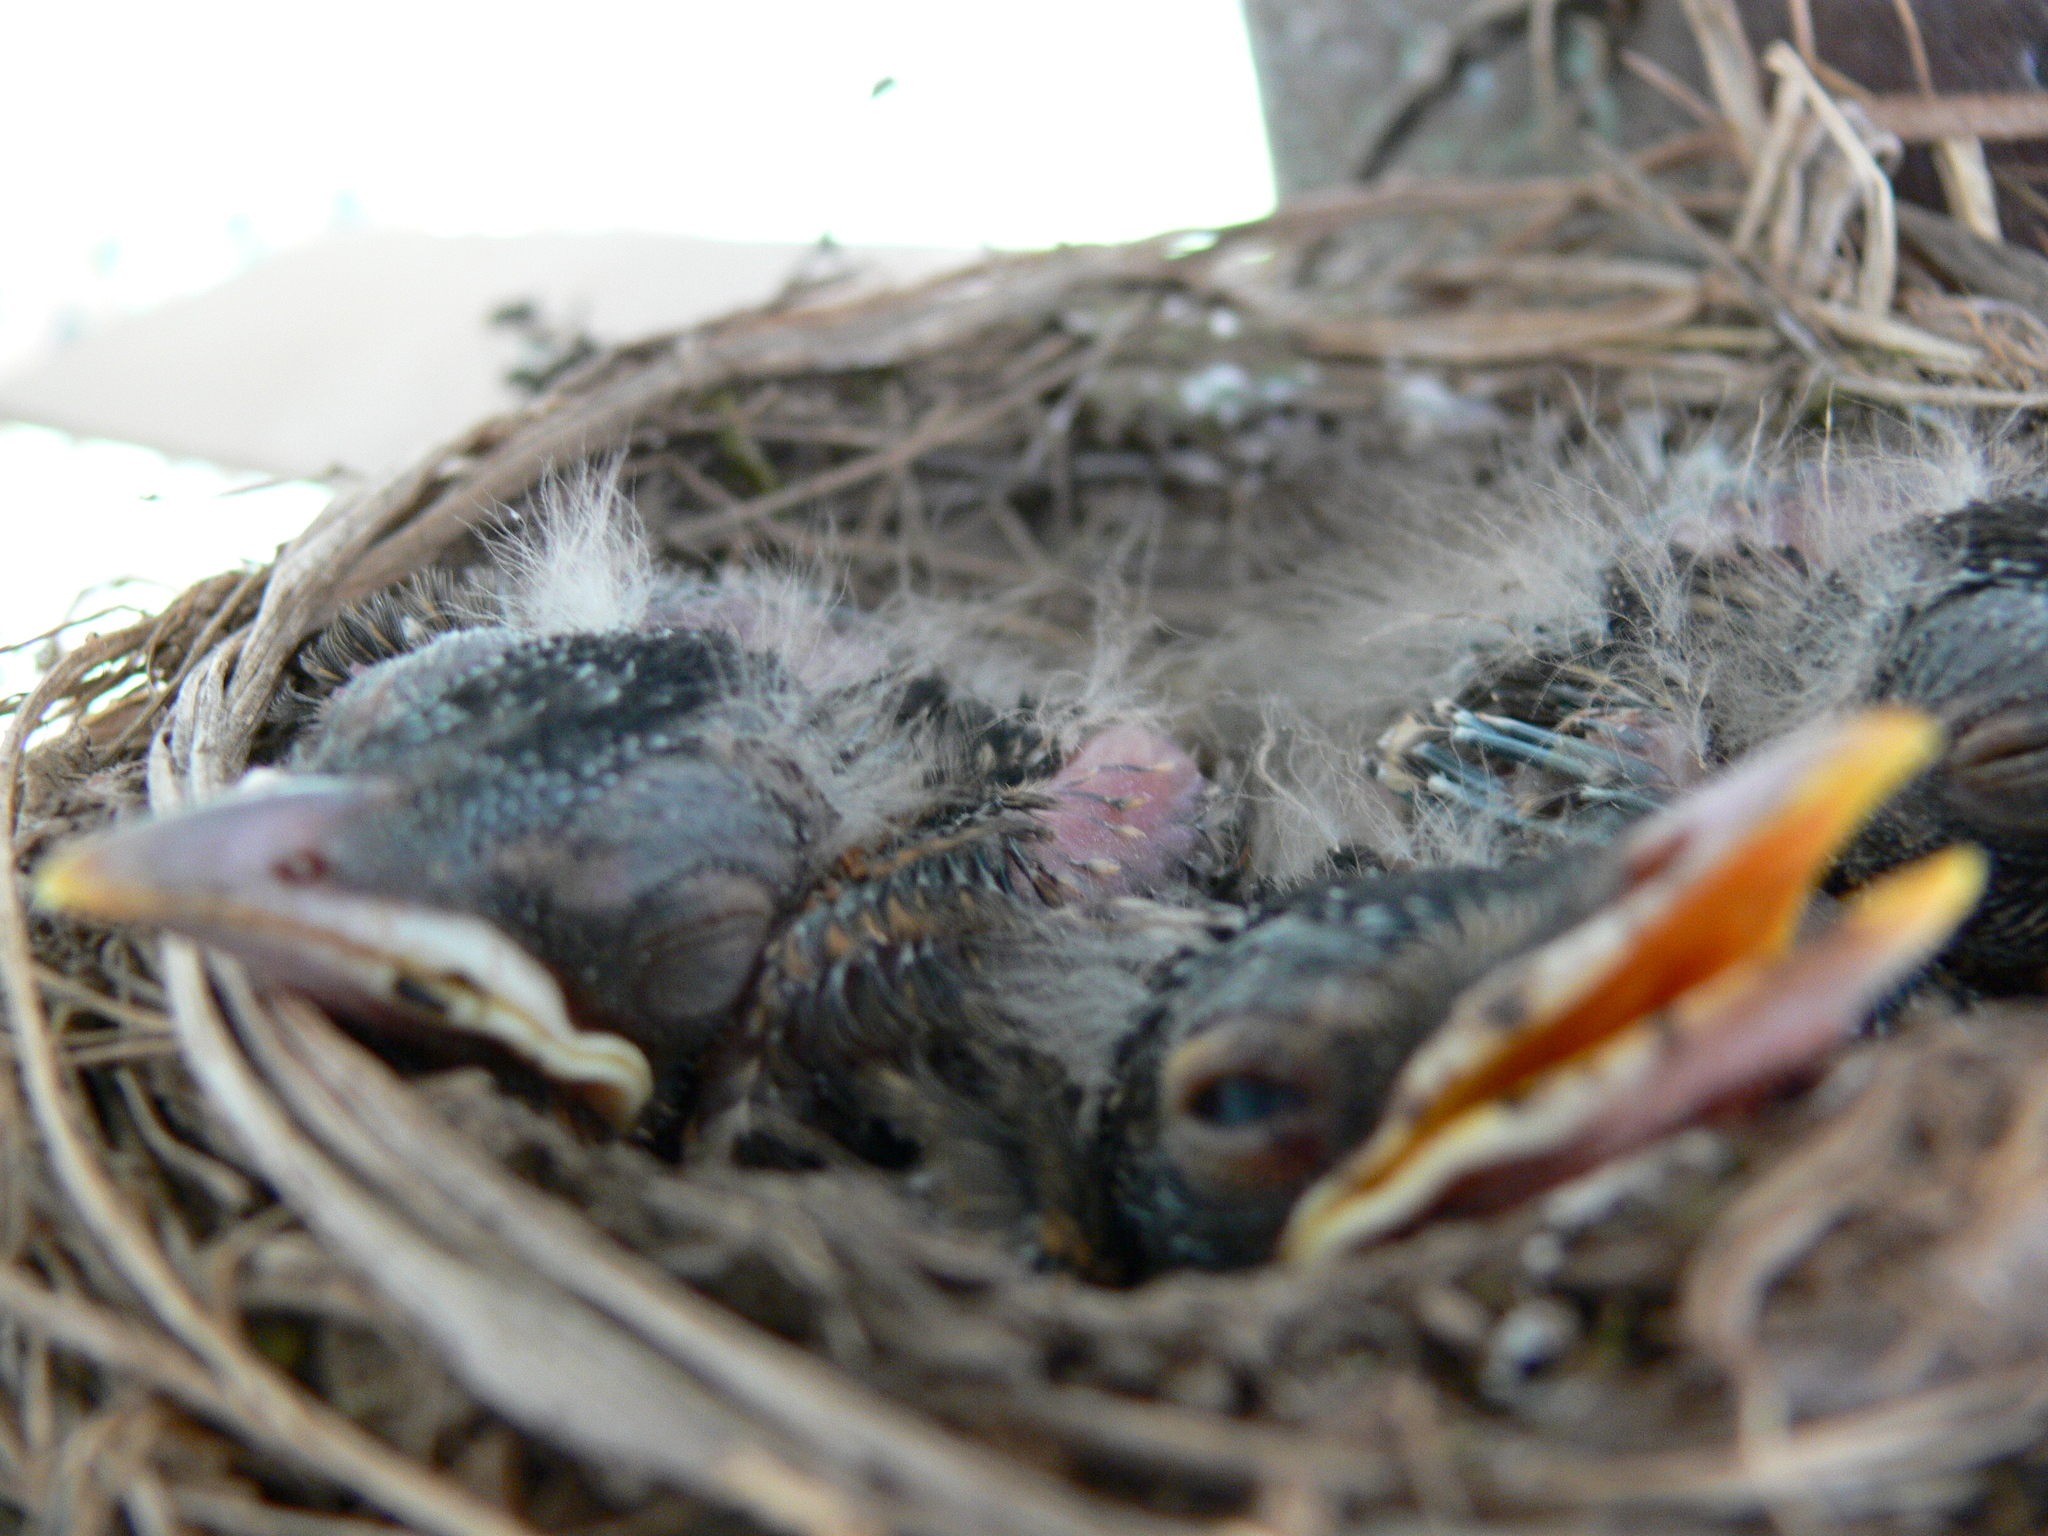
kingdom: Animalia
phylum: Chordata
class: Aves
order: Passeriformes
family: Turdidae
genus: Turdus
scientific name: Turdus migratorius
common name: American robin
